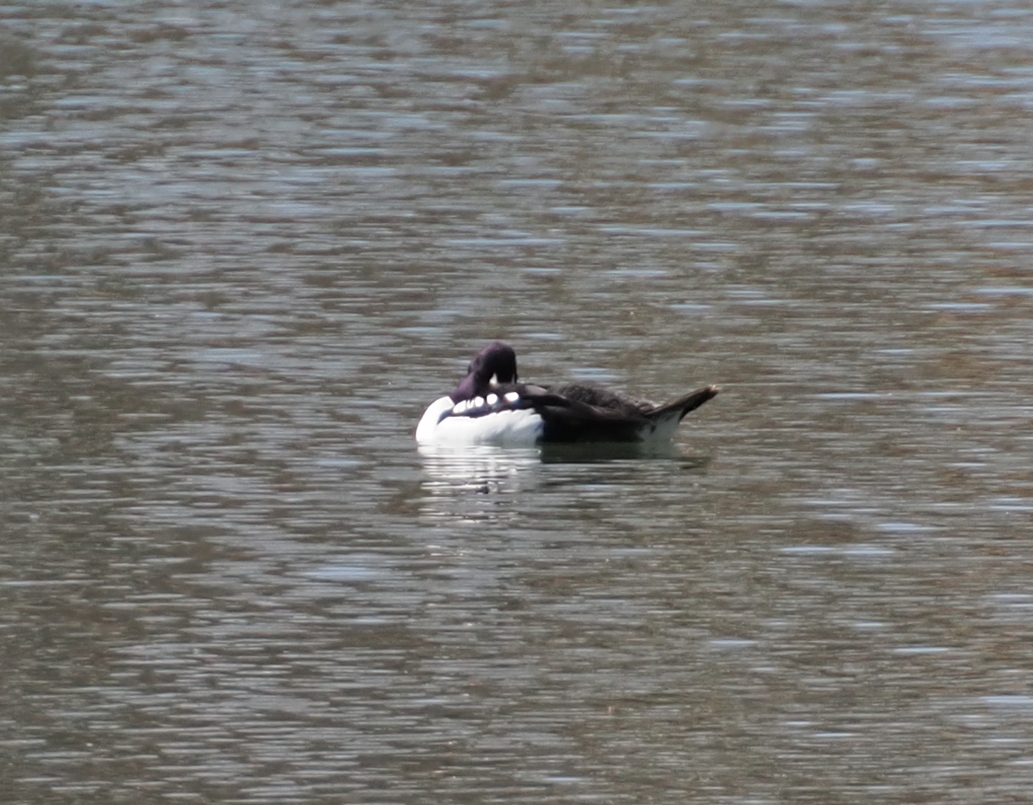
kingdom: Animalia
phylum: Chordata
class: Aves
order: Anseriformes
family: Anatidae
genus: Bucephala
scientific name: Bucephala islandica
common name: Barrow's goldeneye
